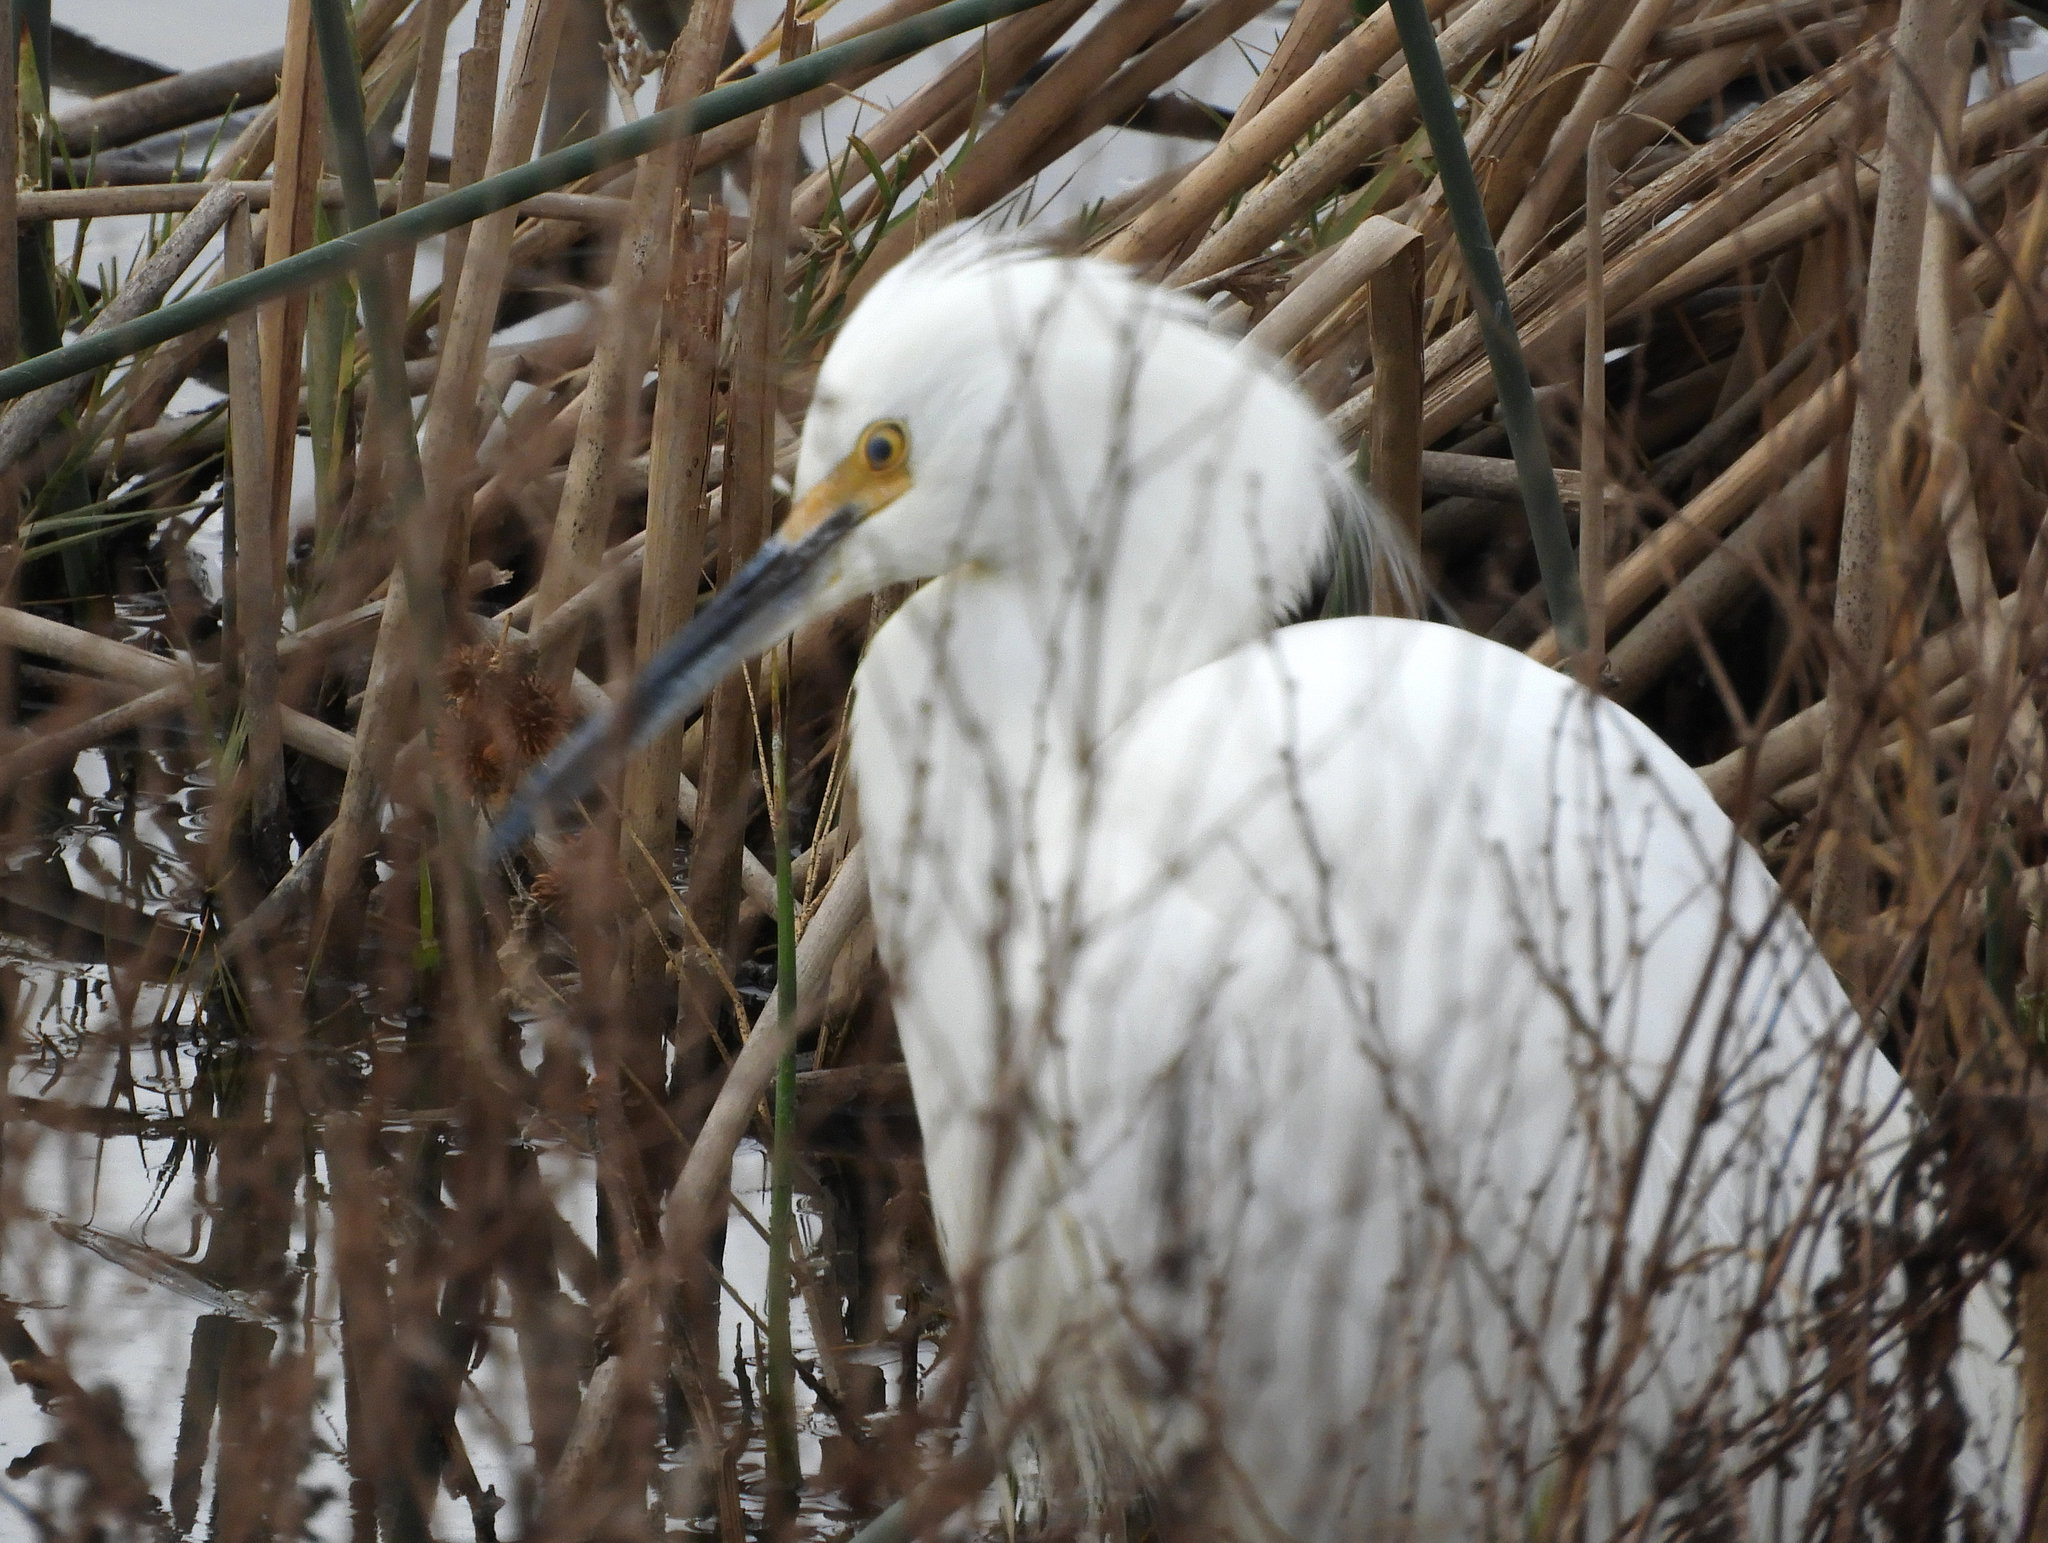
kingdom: Animalia
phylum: Chordata
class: Aves
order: Pelecaniformes
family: Ardeidae
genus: Egretta
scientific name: Egretta thula
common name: Snowy egret
